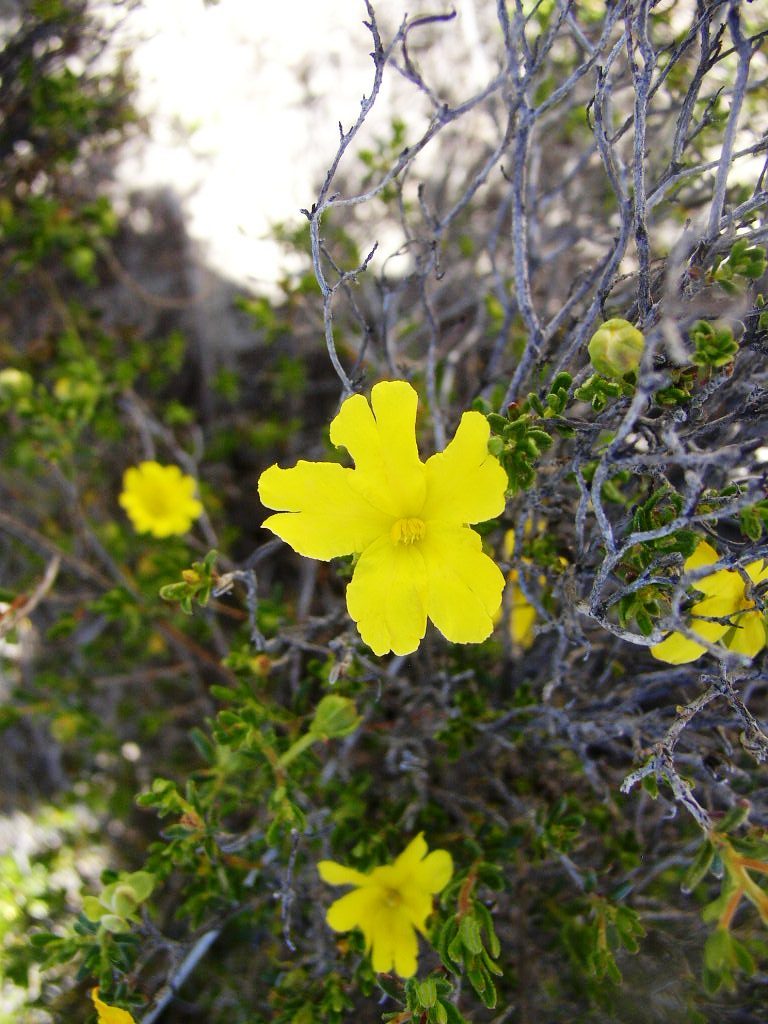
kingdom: Plantae
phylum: Tracheophyta
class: Magnoliopsida
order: Dilleniales
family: Dilleniaceae
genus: Hibbertia
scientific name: Hibbertia hypericoides
